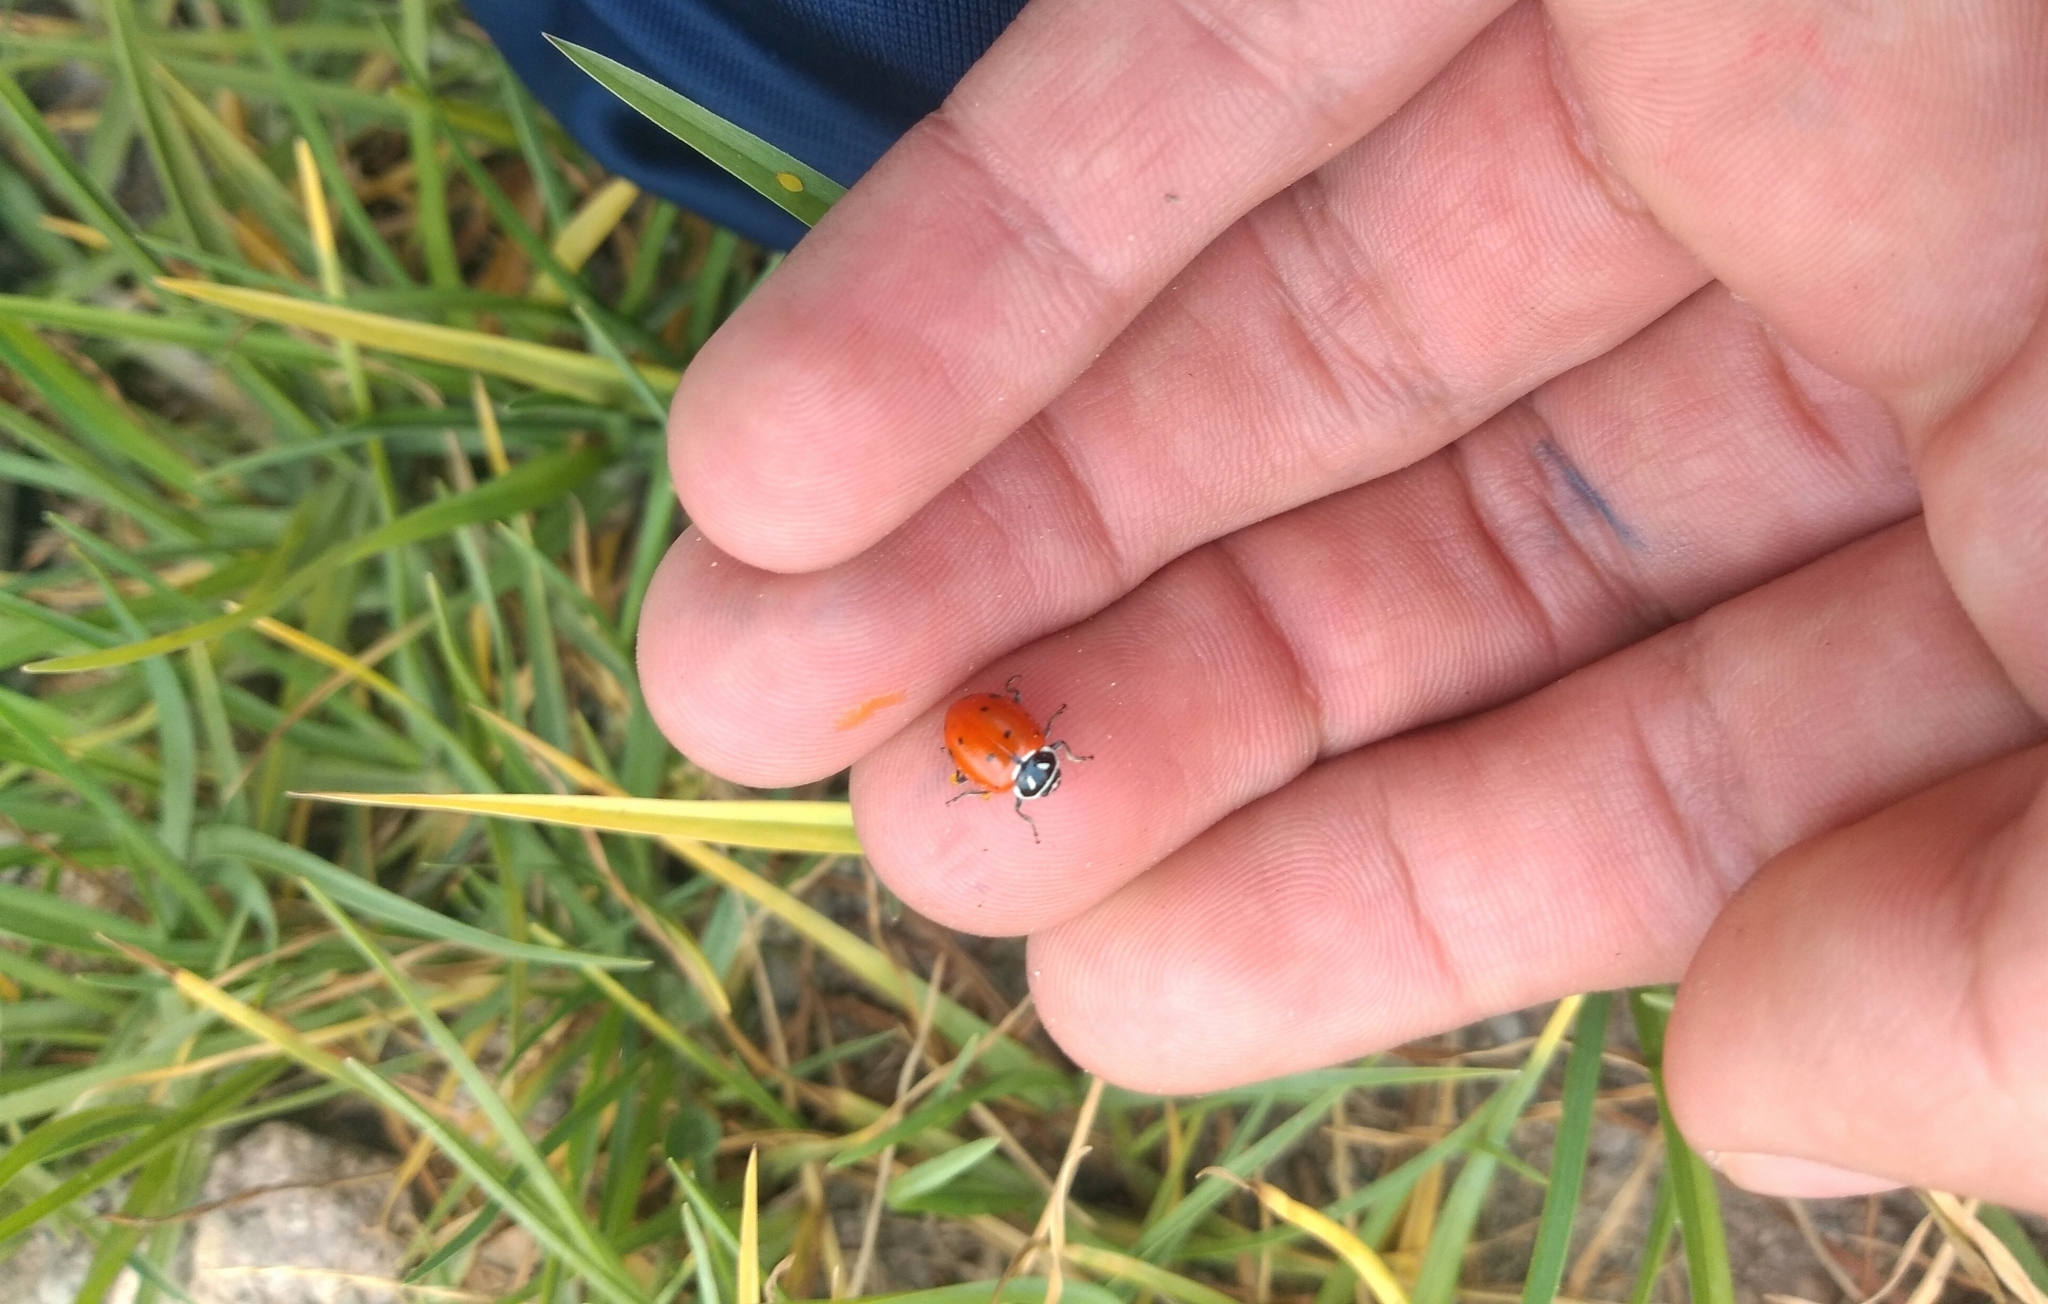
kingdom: Animalia
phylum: Arthropoda
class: Insecta
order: Coleoptera
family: Coccinellidae
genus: Hippodamia
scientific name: Hippodamia convergens
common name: Convergent lady beetle
